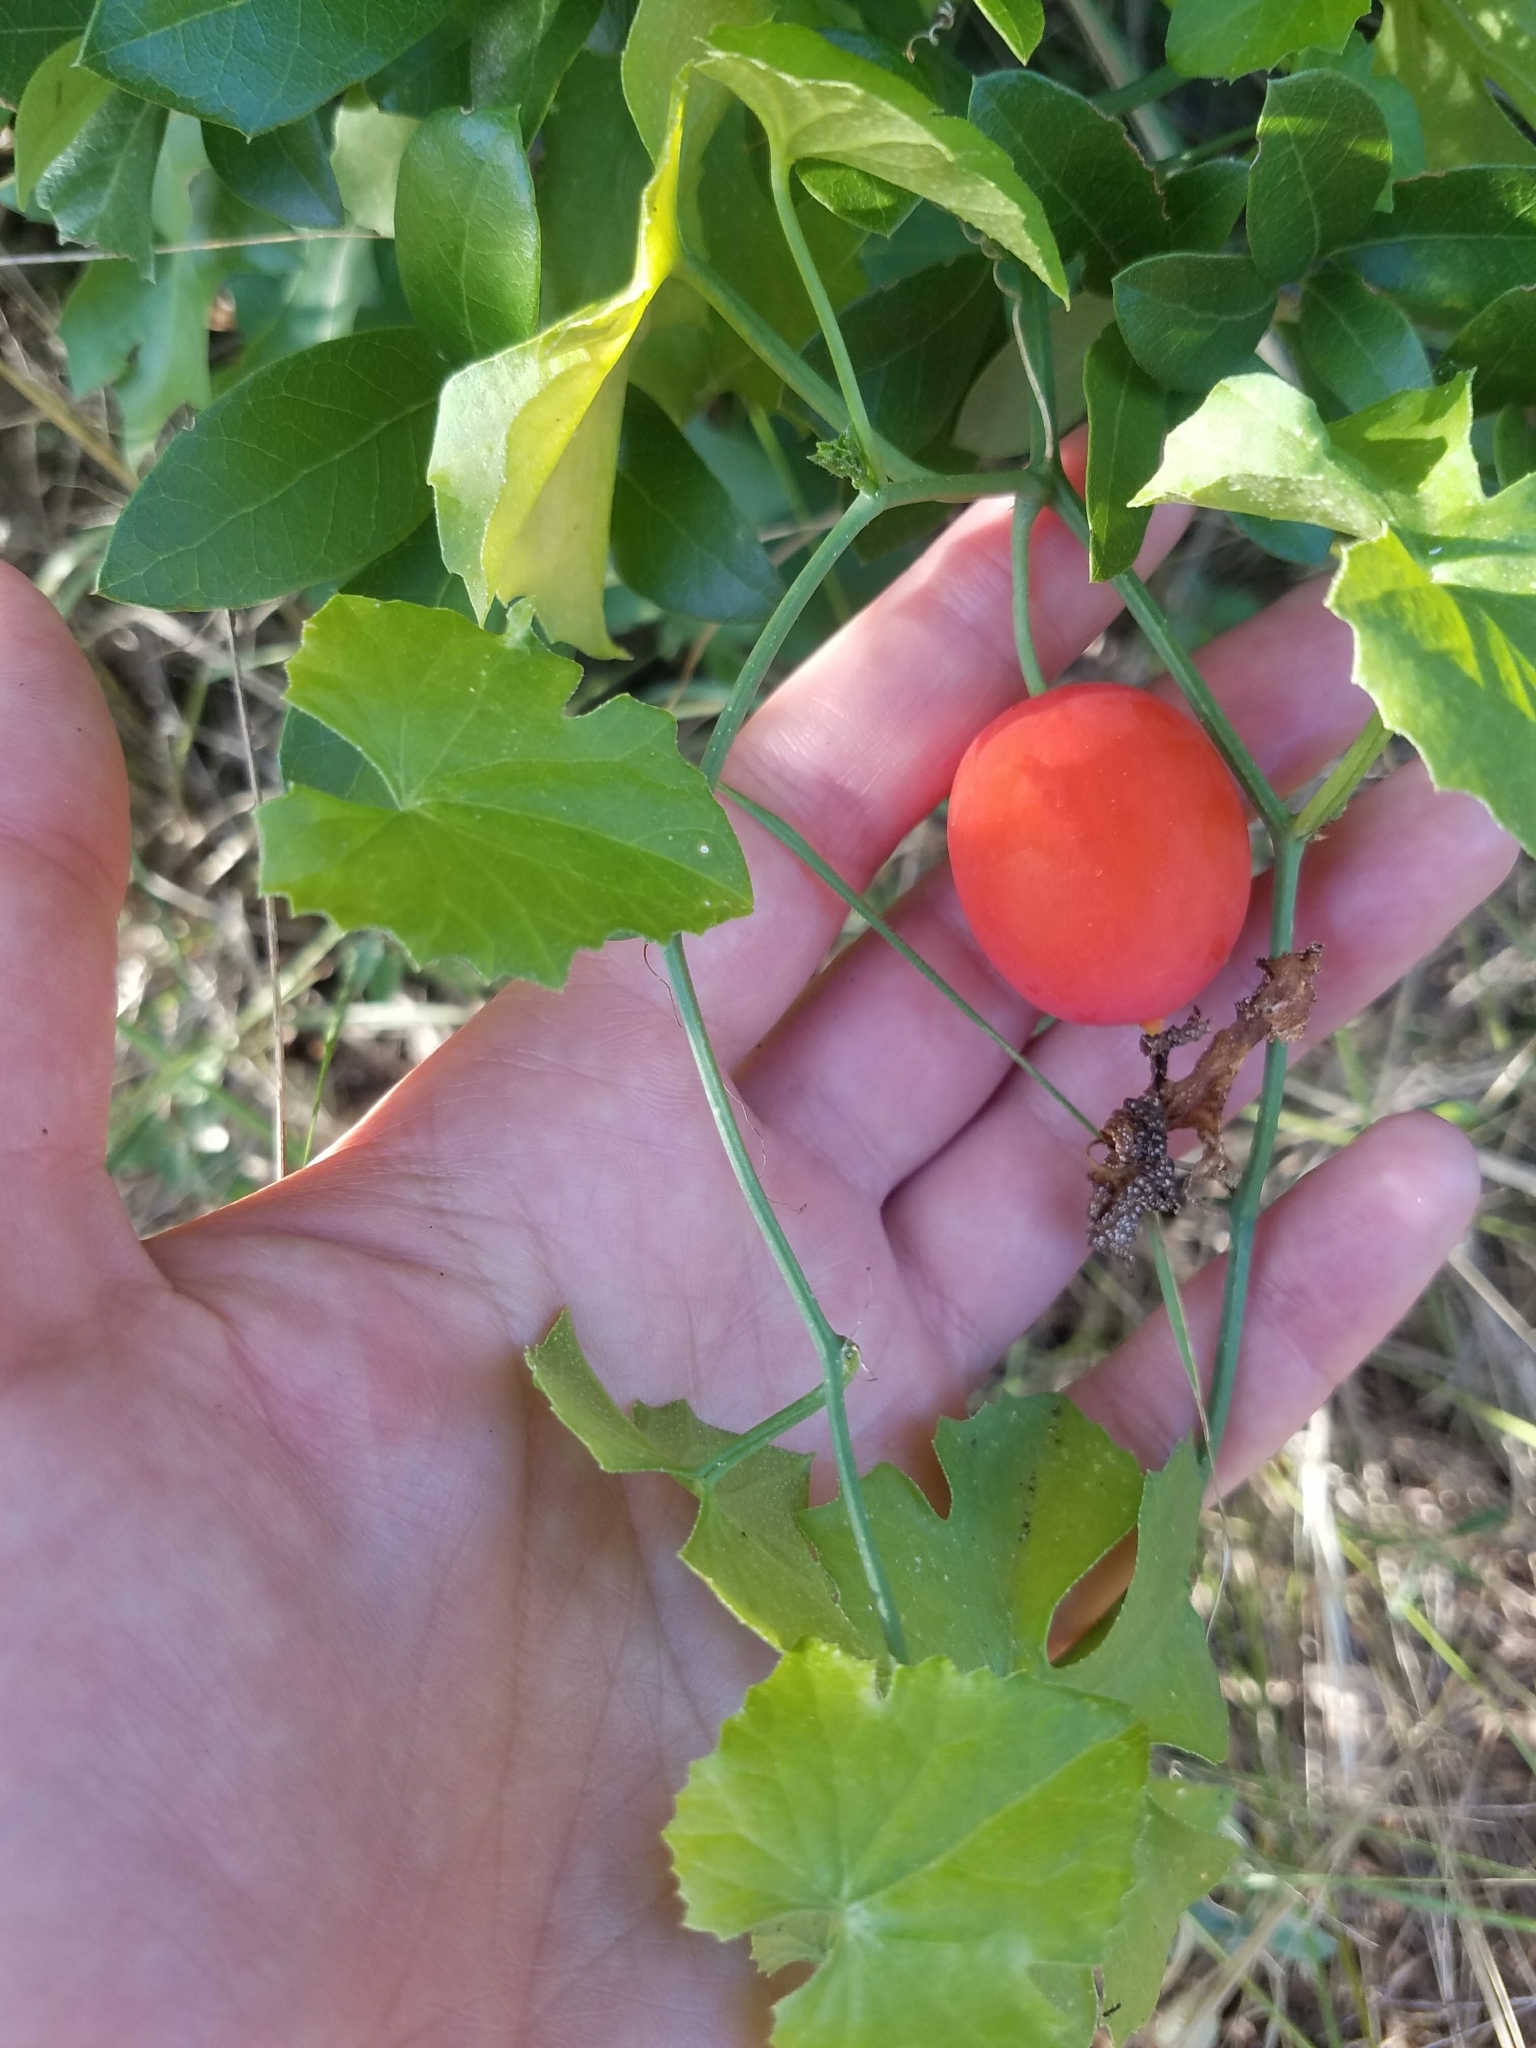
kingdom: Plantae
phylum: Tracheophyta
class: Magnoliopsida
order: Cucurbitales
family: Cucurbitaceae
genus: Ibervillea
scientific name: Ibervillea lindheimeri
